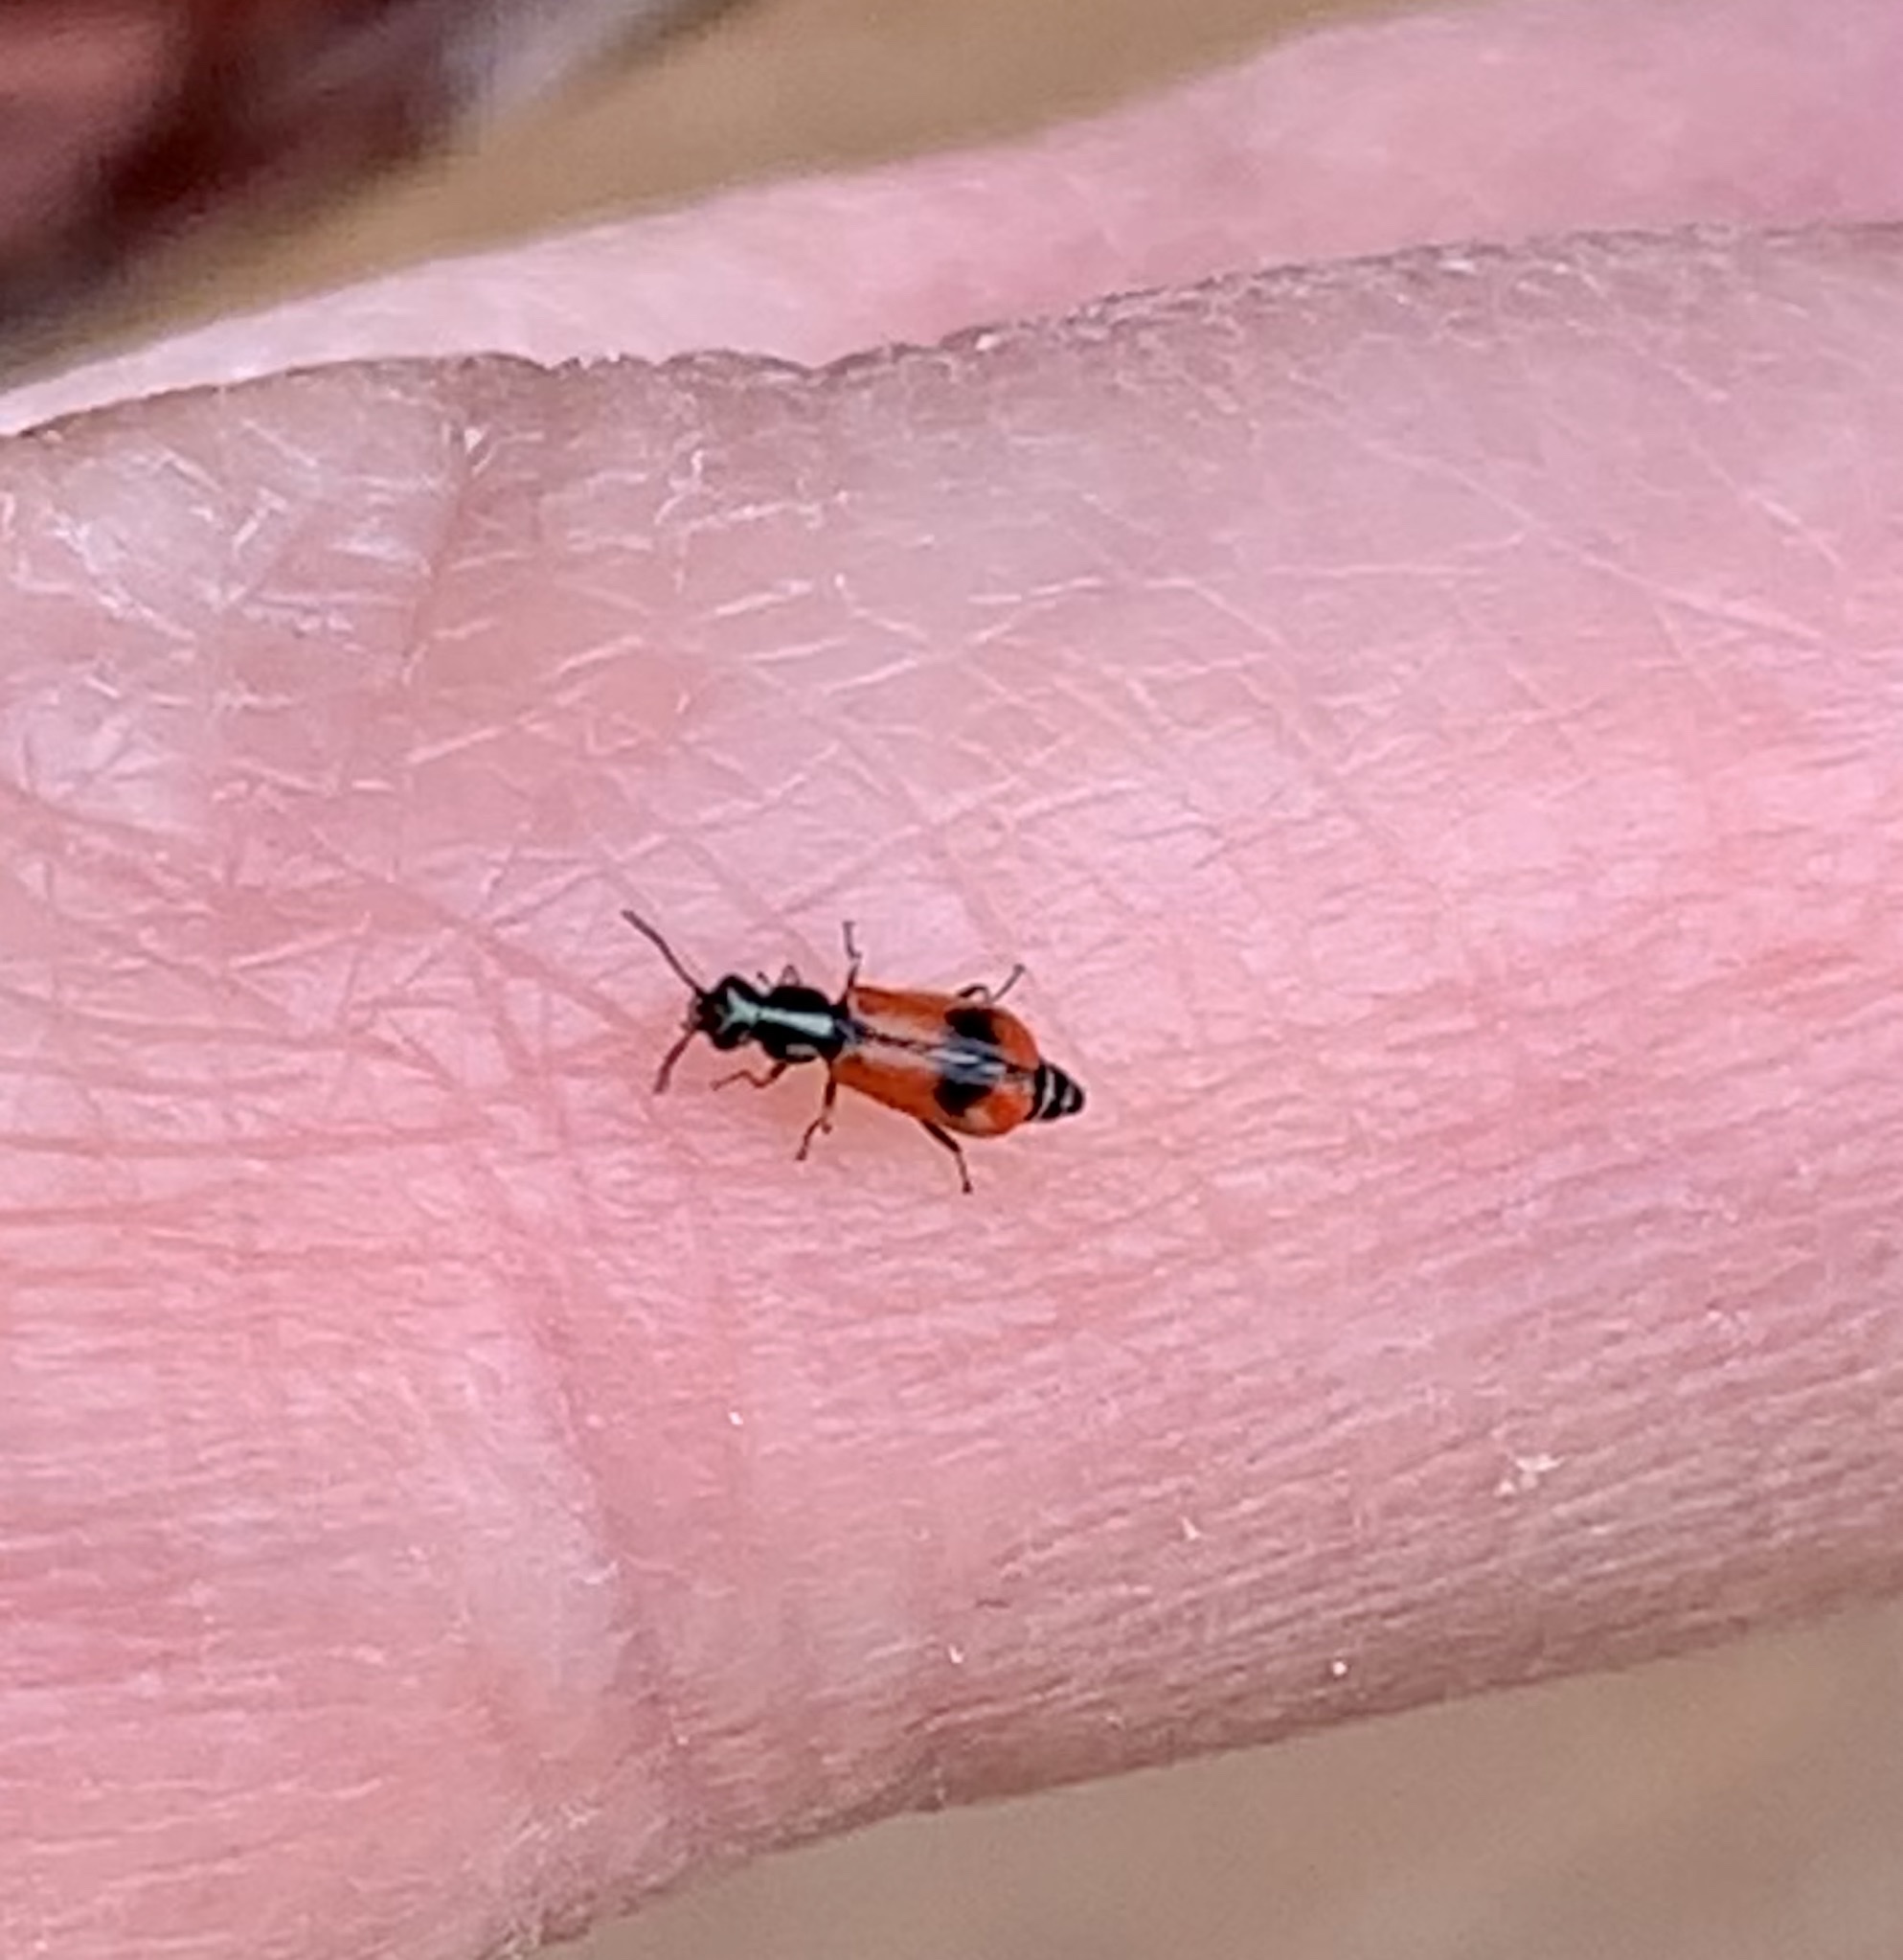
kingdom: Animalia
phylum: Arthropoda
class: Insecta
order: Coleoptera
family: Melyridae
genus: Anthocomus
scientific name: Anthocomus equestris
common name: Black-banded soft-winged flower beetle
